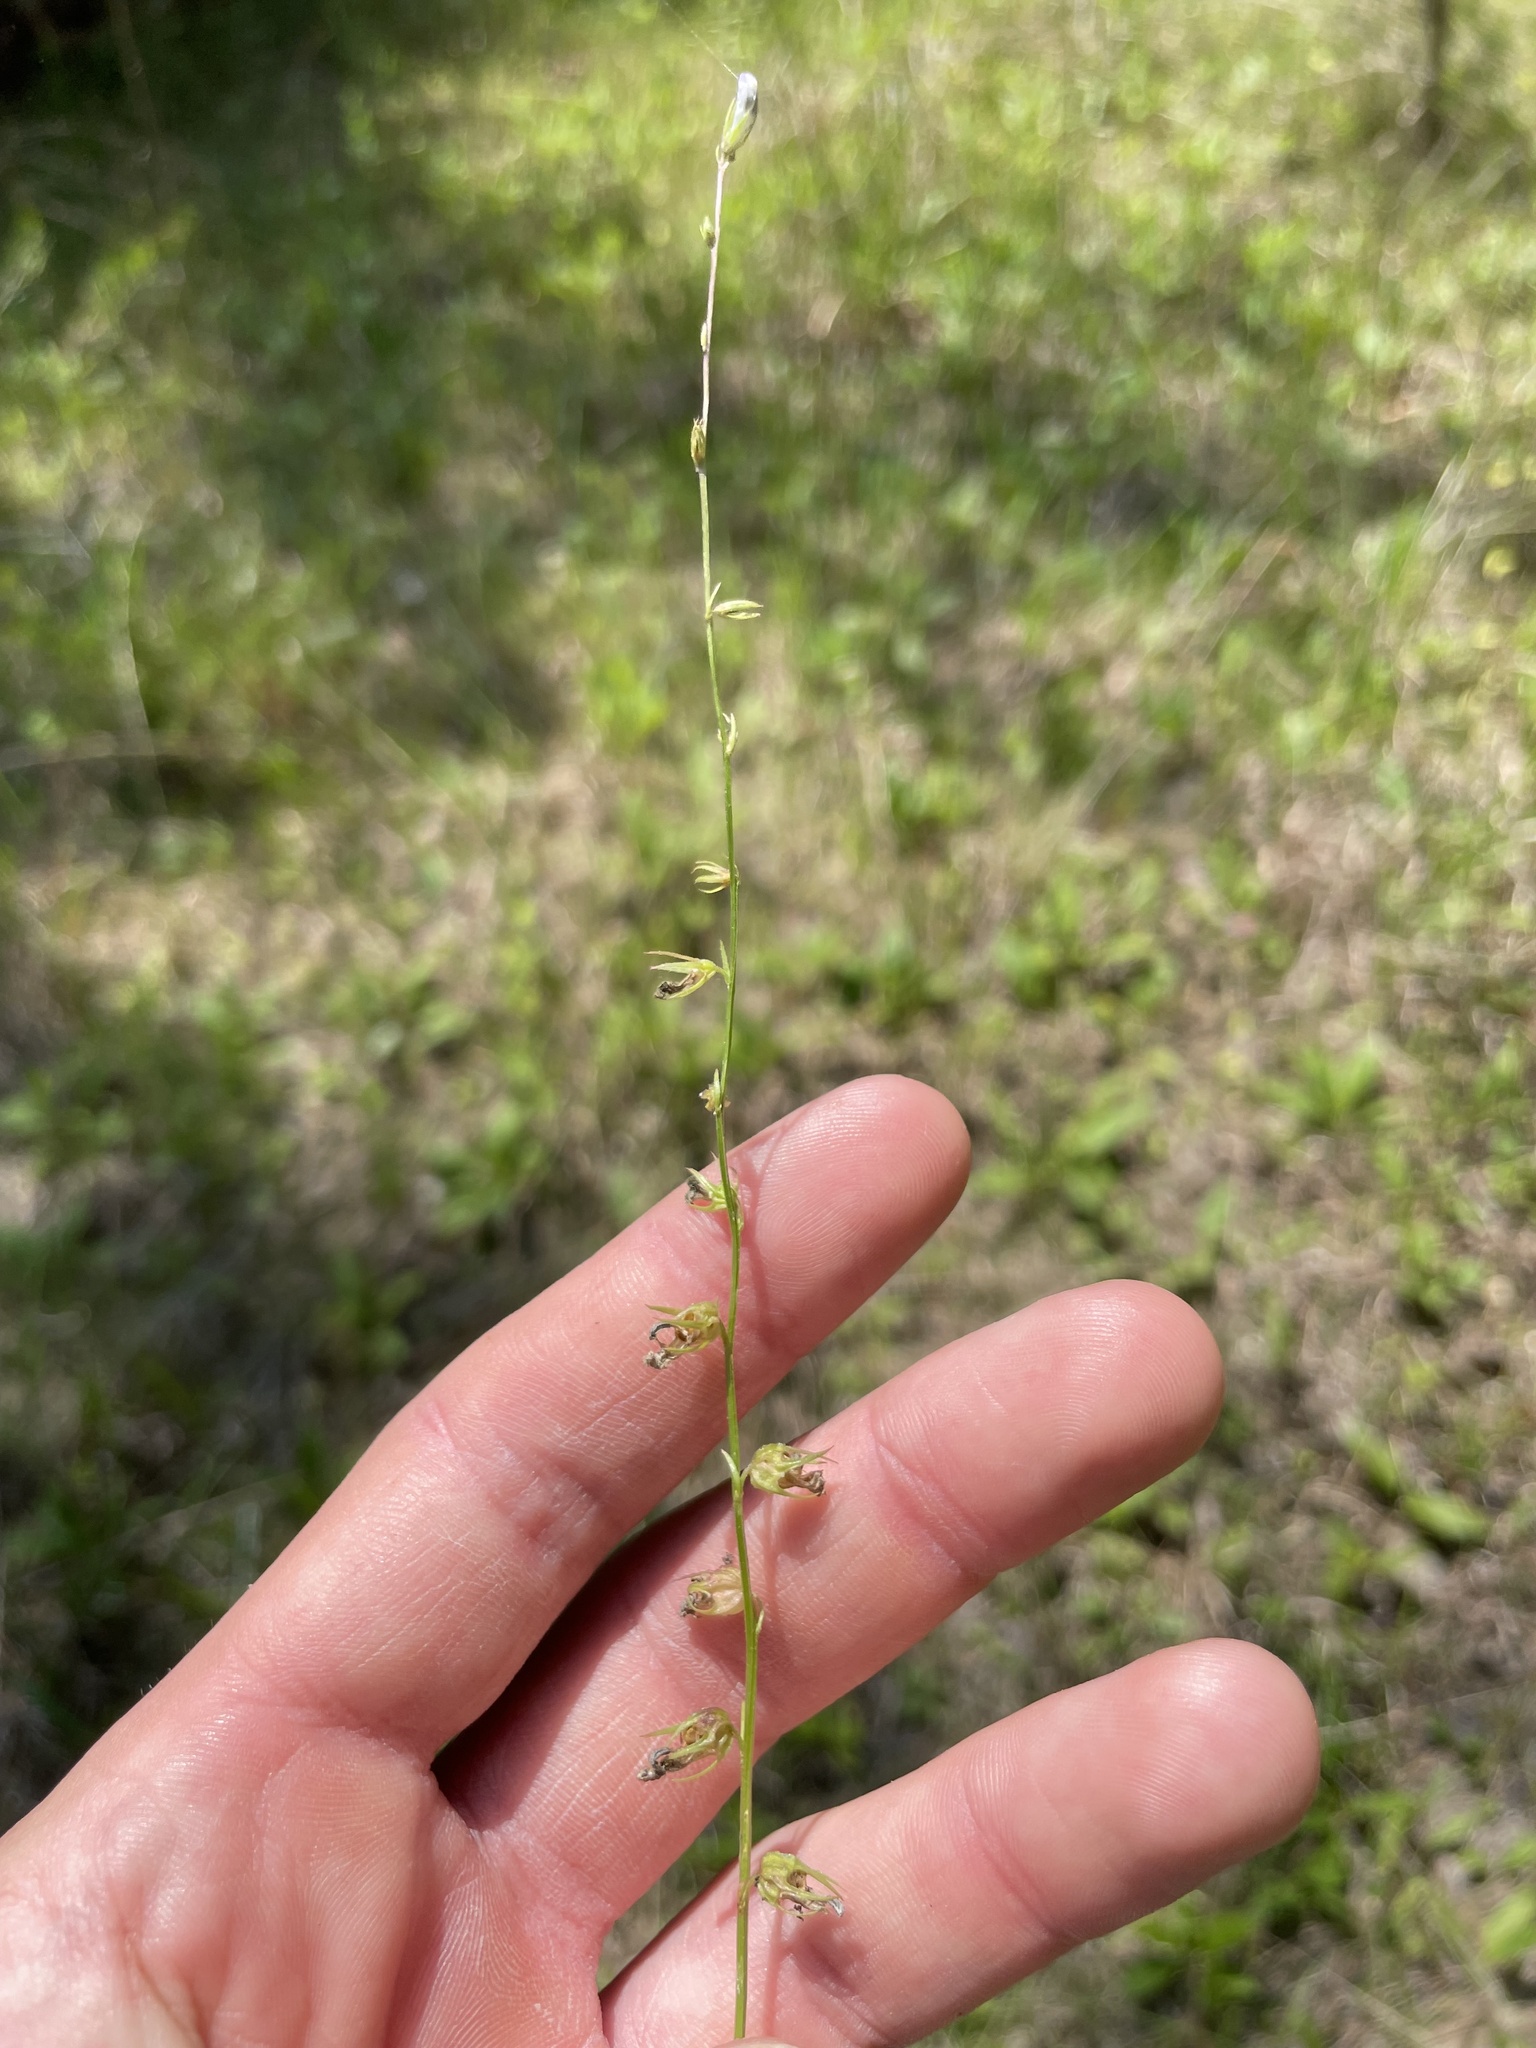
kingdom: Plantae
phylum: Tracheophyta
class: Magnoliopsida
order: Asterales
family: Campanulaceae
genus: Lobelia
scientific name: Lobelia appendiculata
